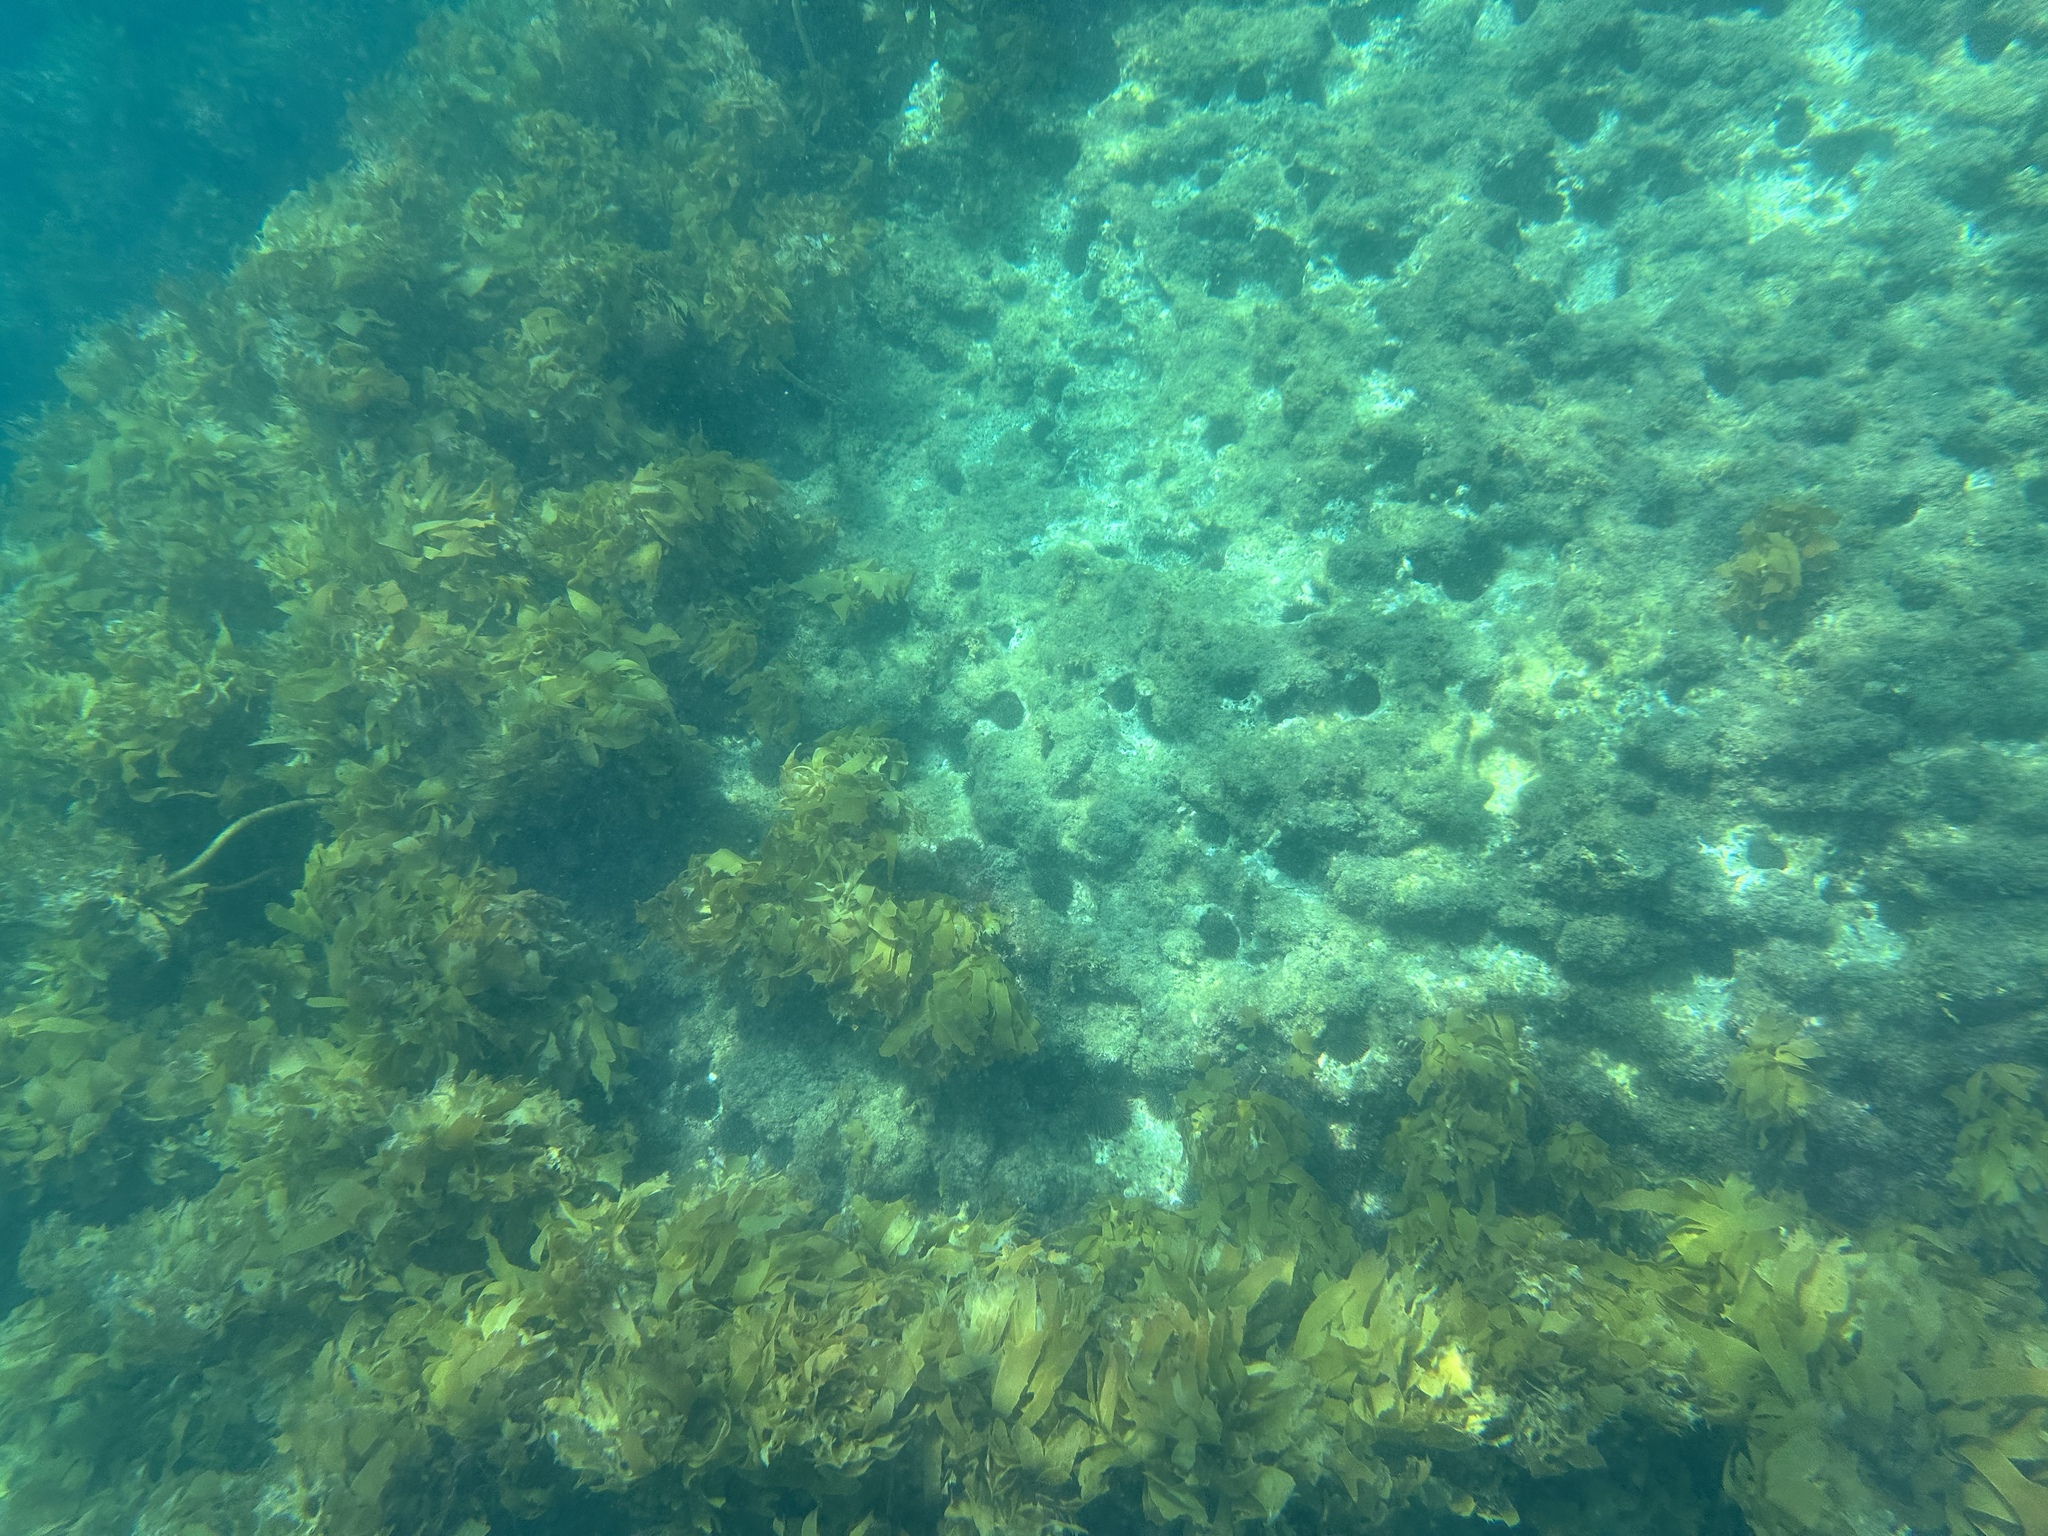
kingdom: Animalia
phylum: Echinodermata
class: Echinoidea
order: Camarodonta
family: Echinometridae
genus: Evechinus
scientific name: Evechinus chloroticus
